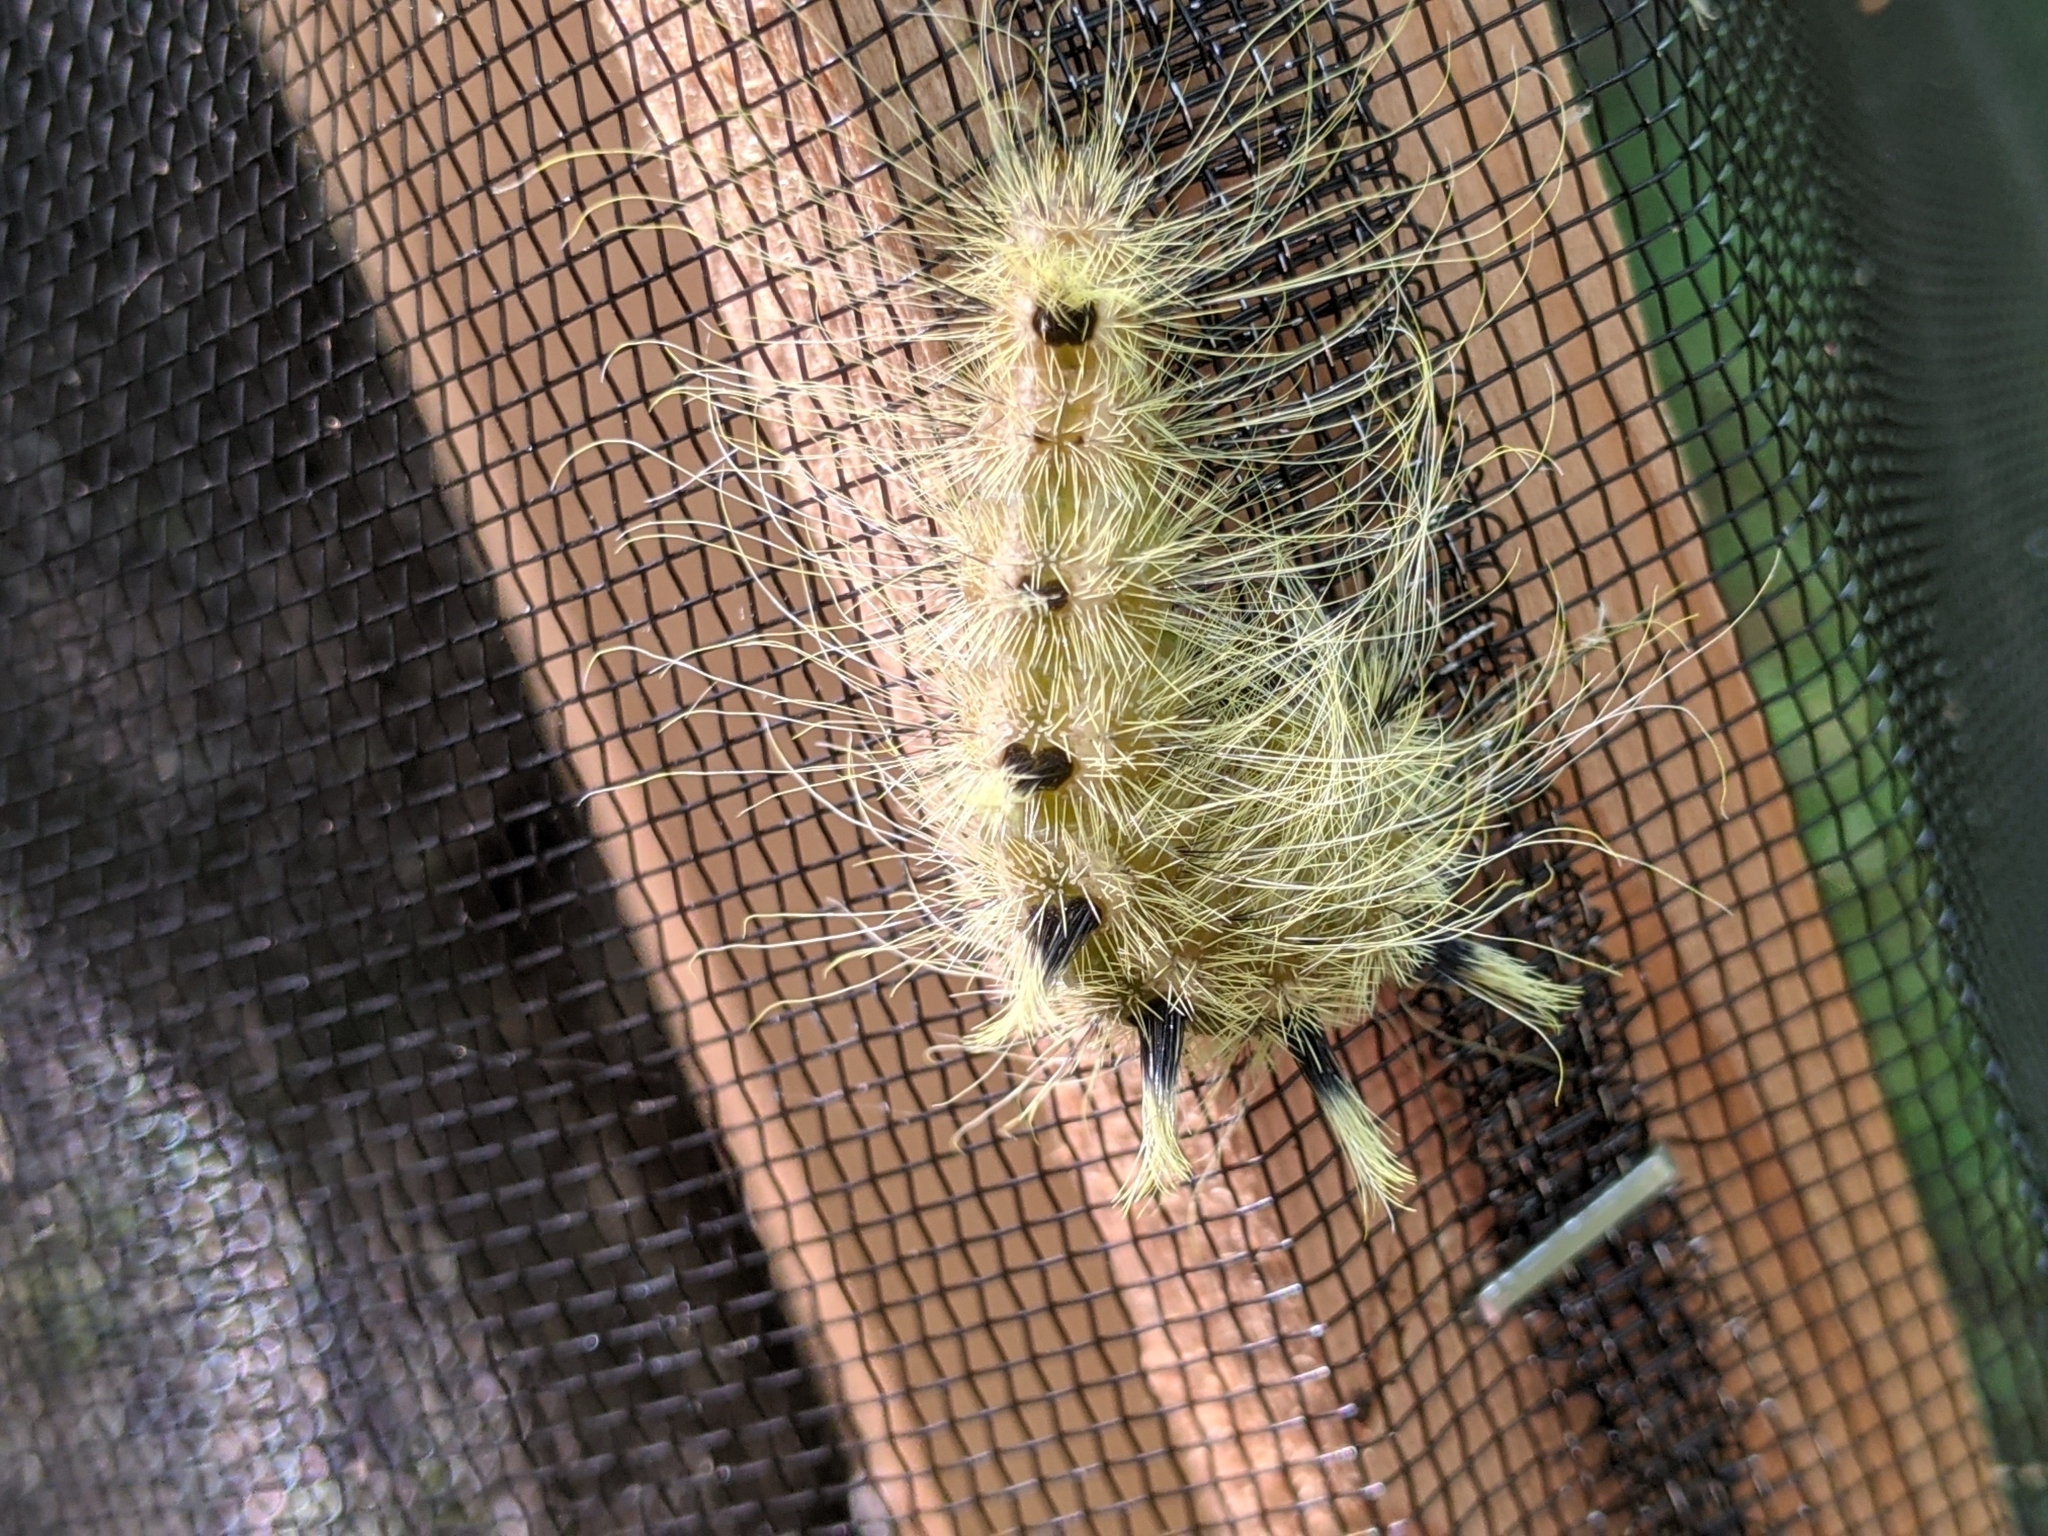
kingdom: Animalia
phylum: Arthropoda
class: Insecta
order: Lepidoptera
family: Noctuidae
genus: Acronicta
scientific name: Acronicta rubricoma
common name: Hackberry dagger
